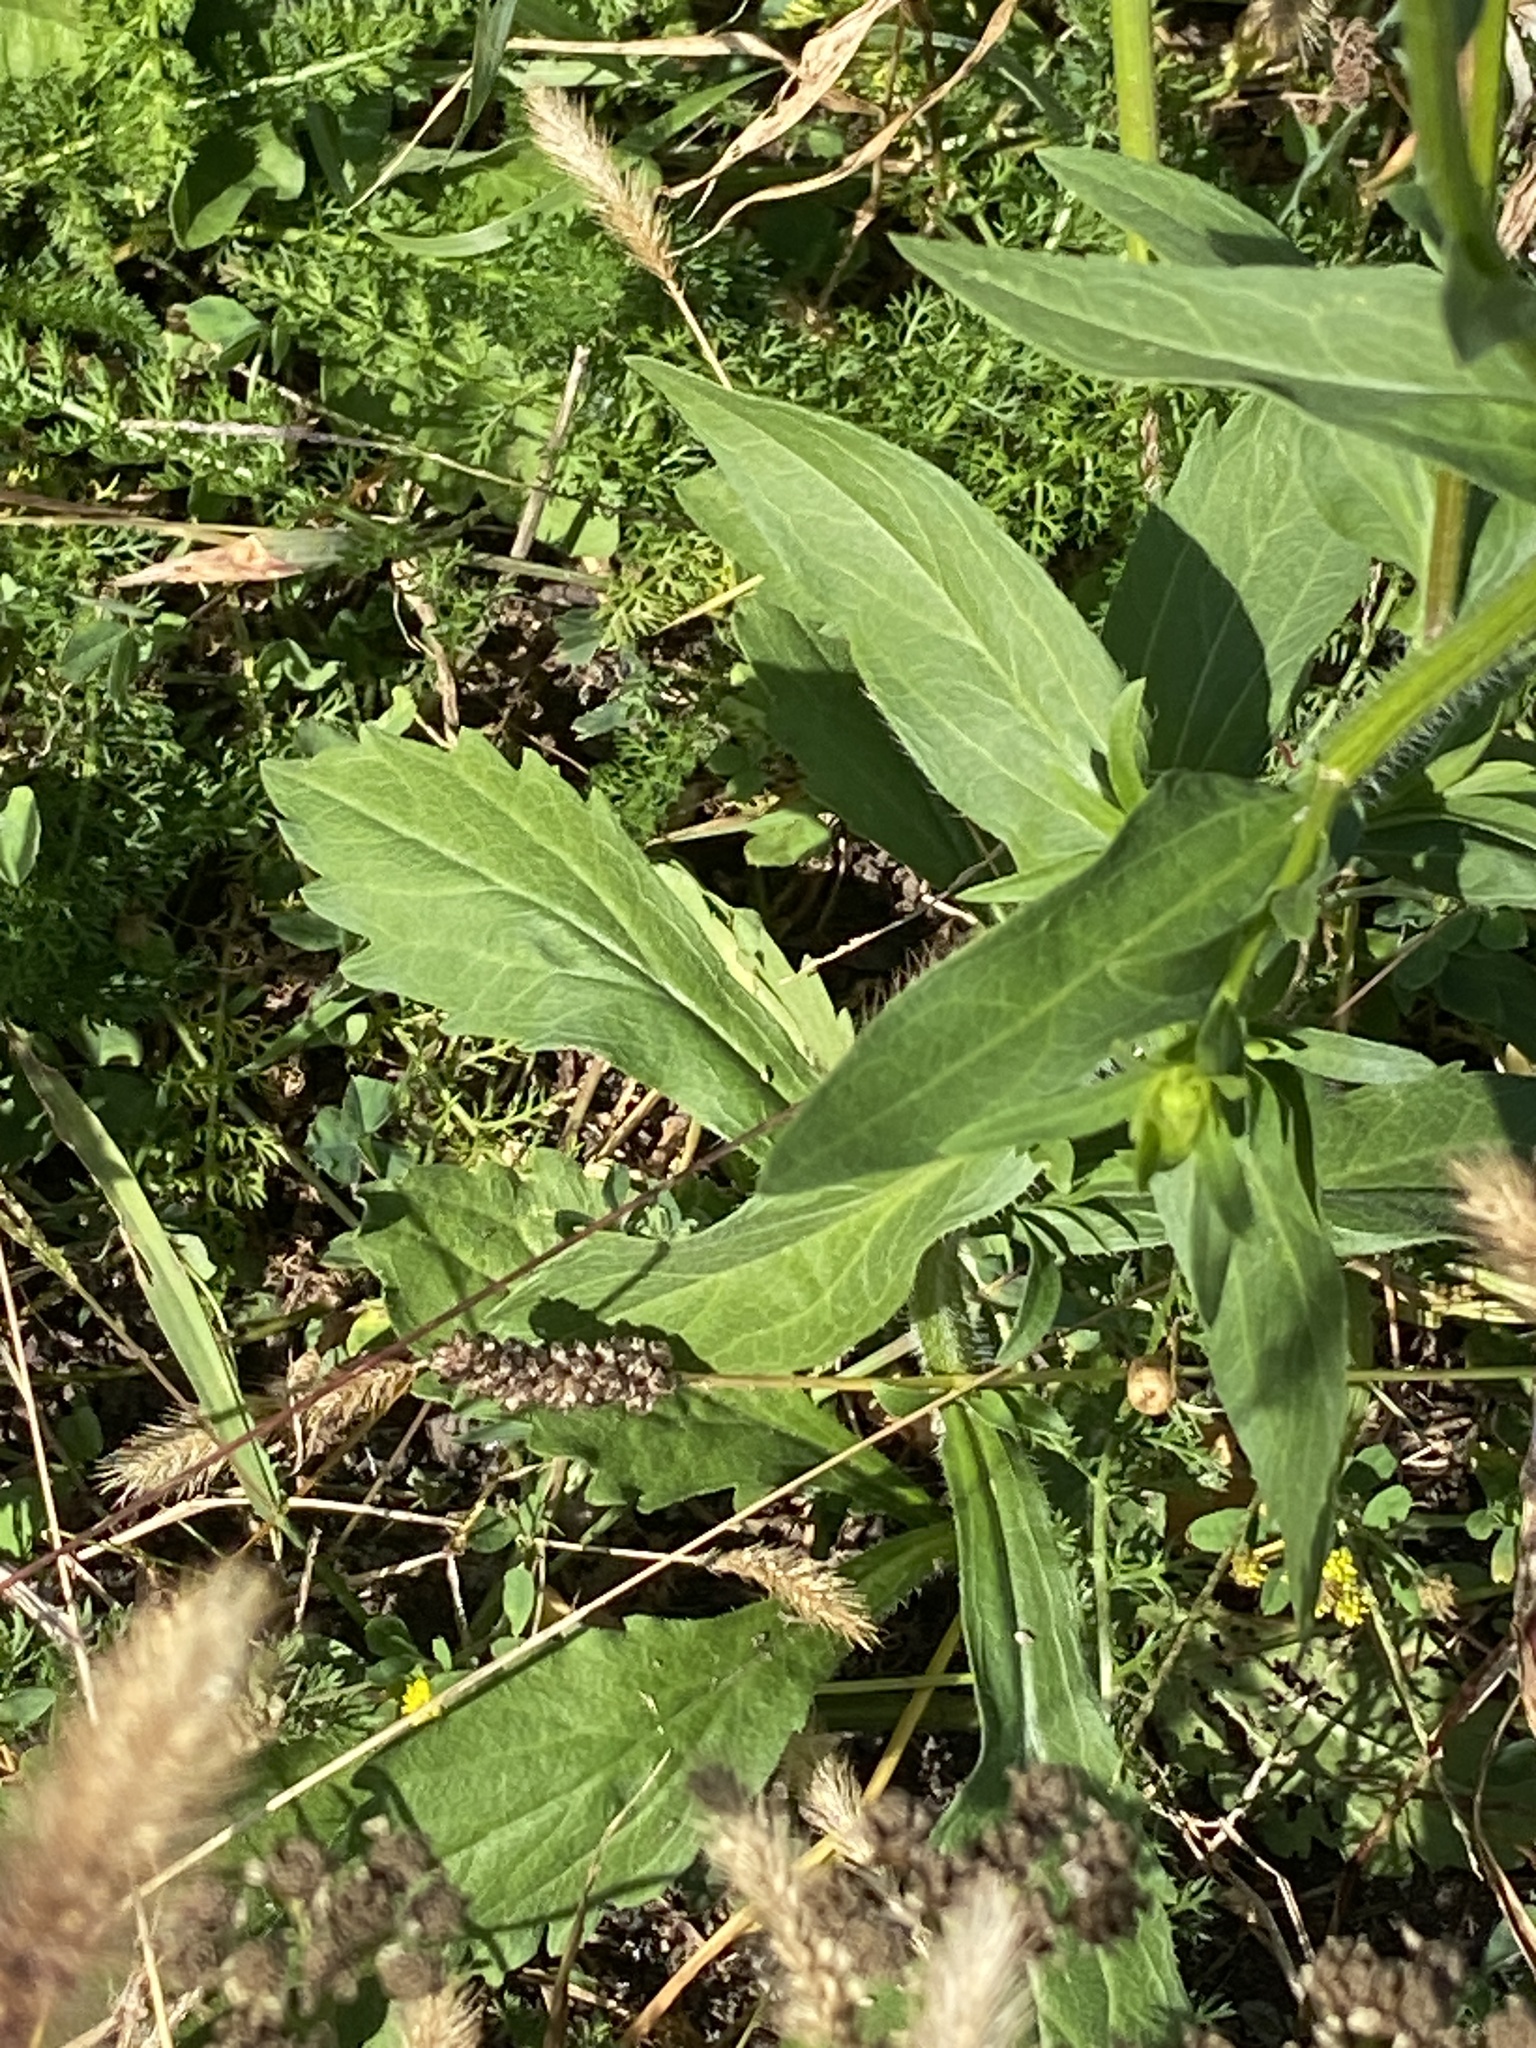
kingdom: Plantae
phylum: Tracheophyta
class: Magnoliopsida
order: Asterales
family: Asteraceae
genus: Erigeron
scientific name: Erigeron annuus
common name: Tall fleabane
